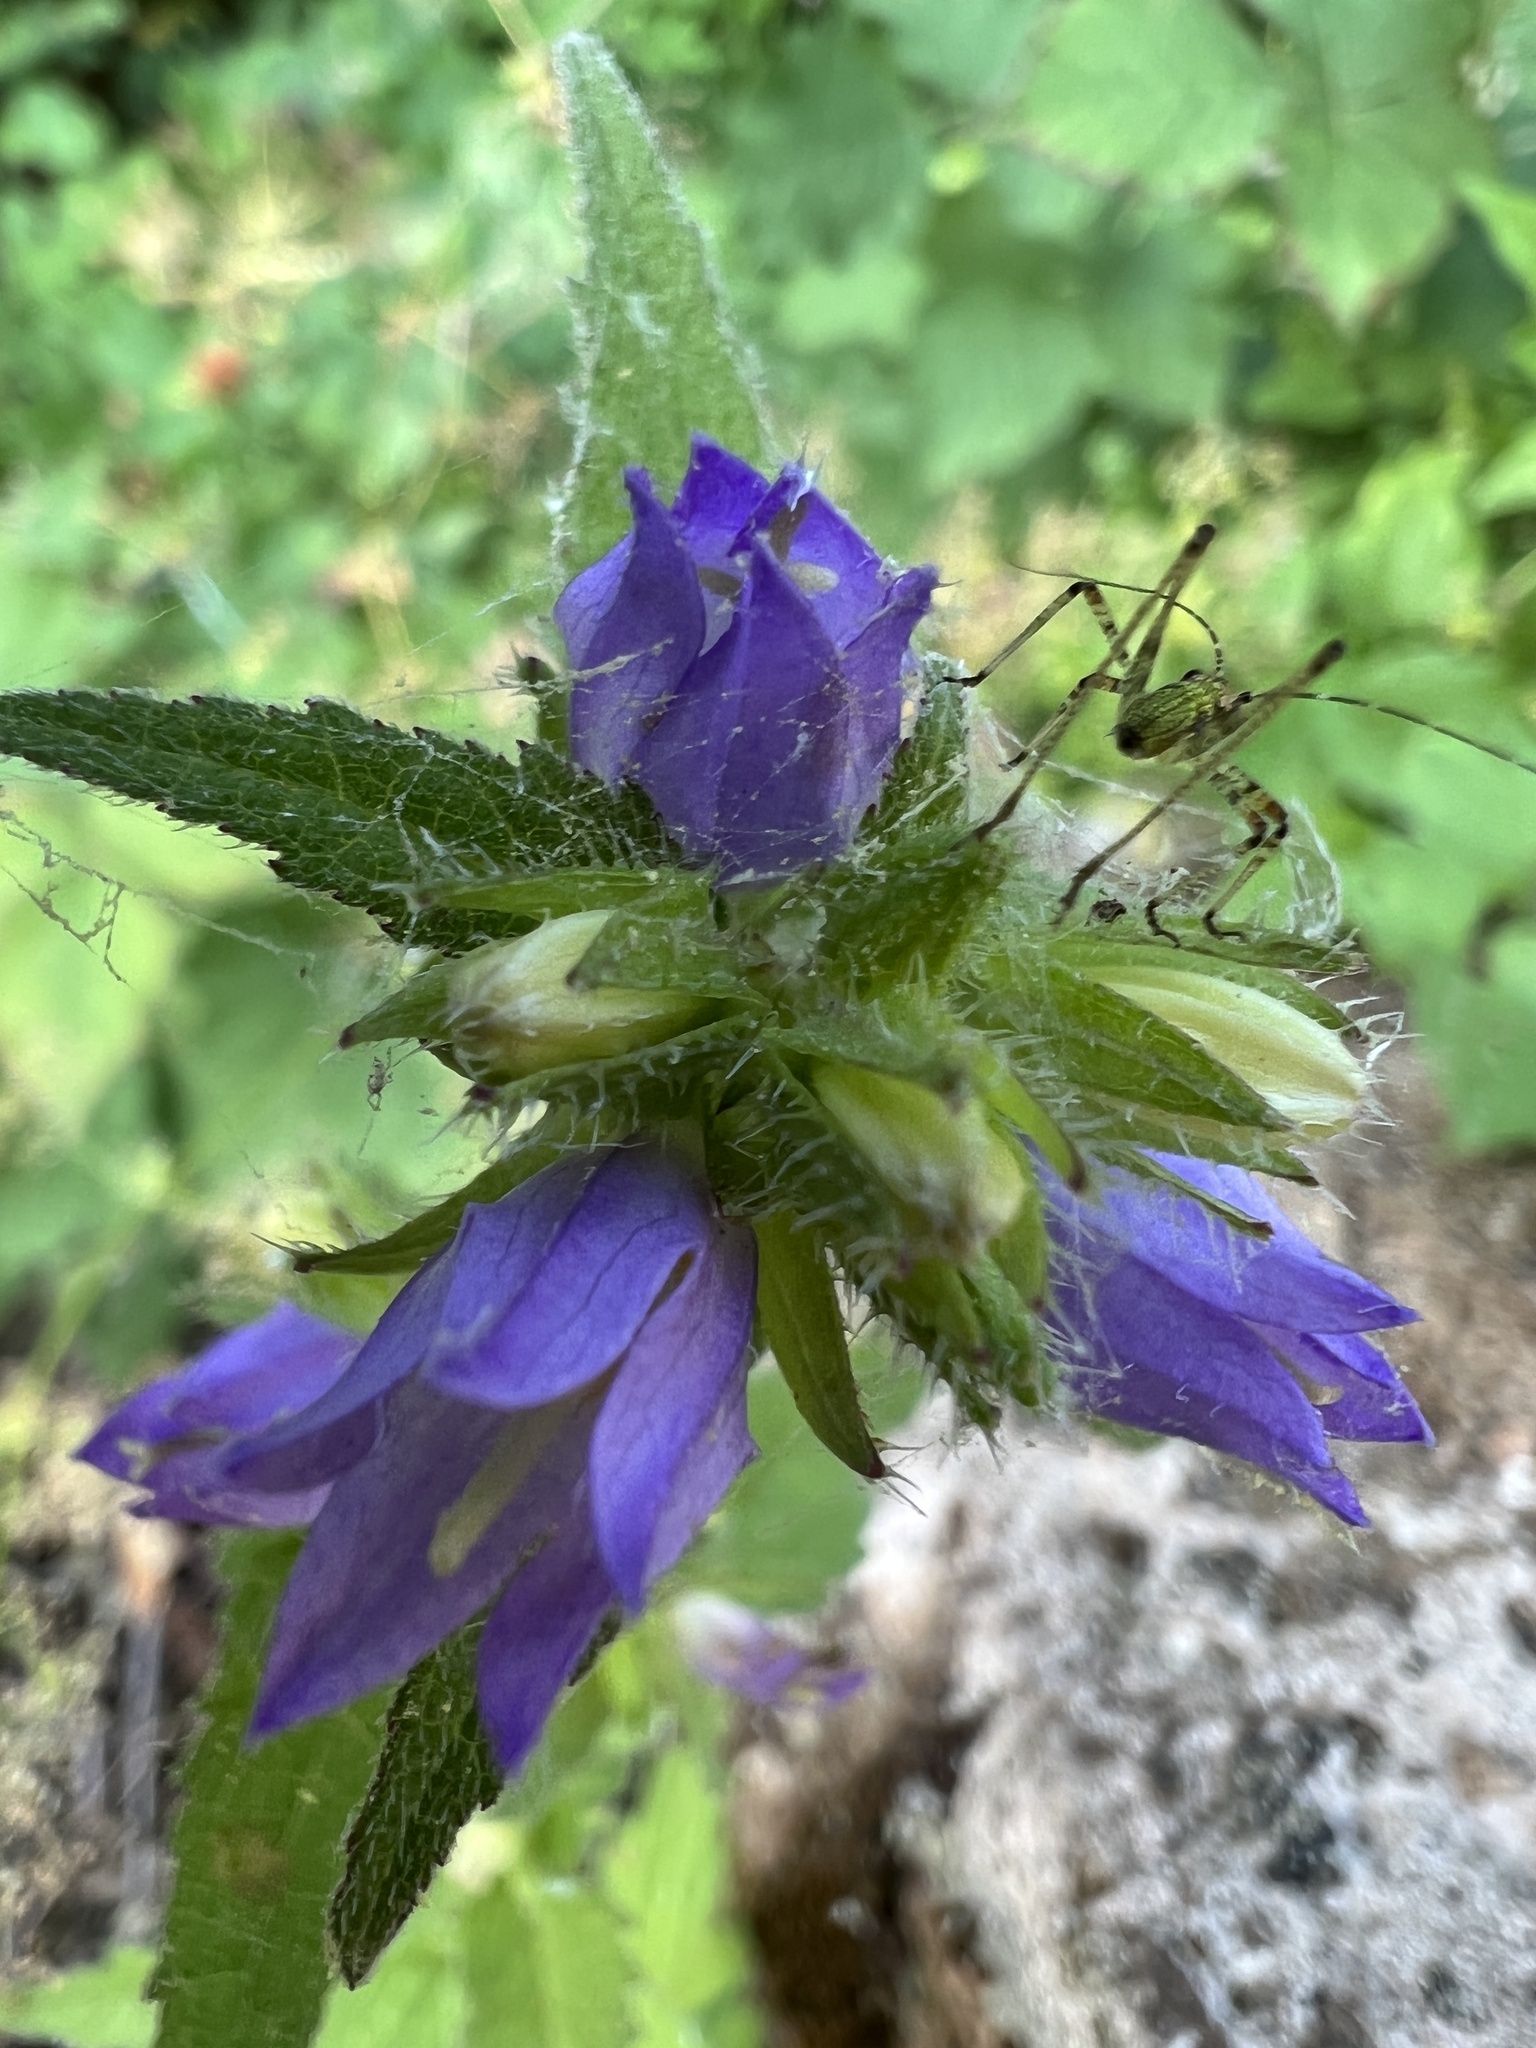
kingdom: Animalia
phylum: Arthropoda
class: Insecta
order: Orthoptera
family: Tettigoniidae
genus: Phaneroptera
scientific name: Phaneroptera nana
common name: Southern sickle bush-cricket
